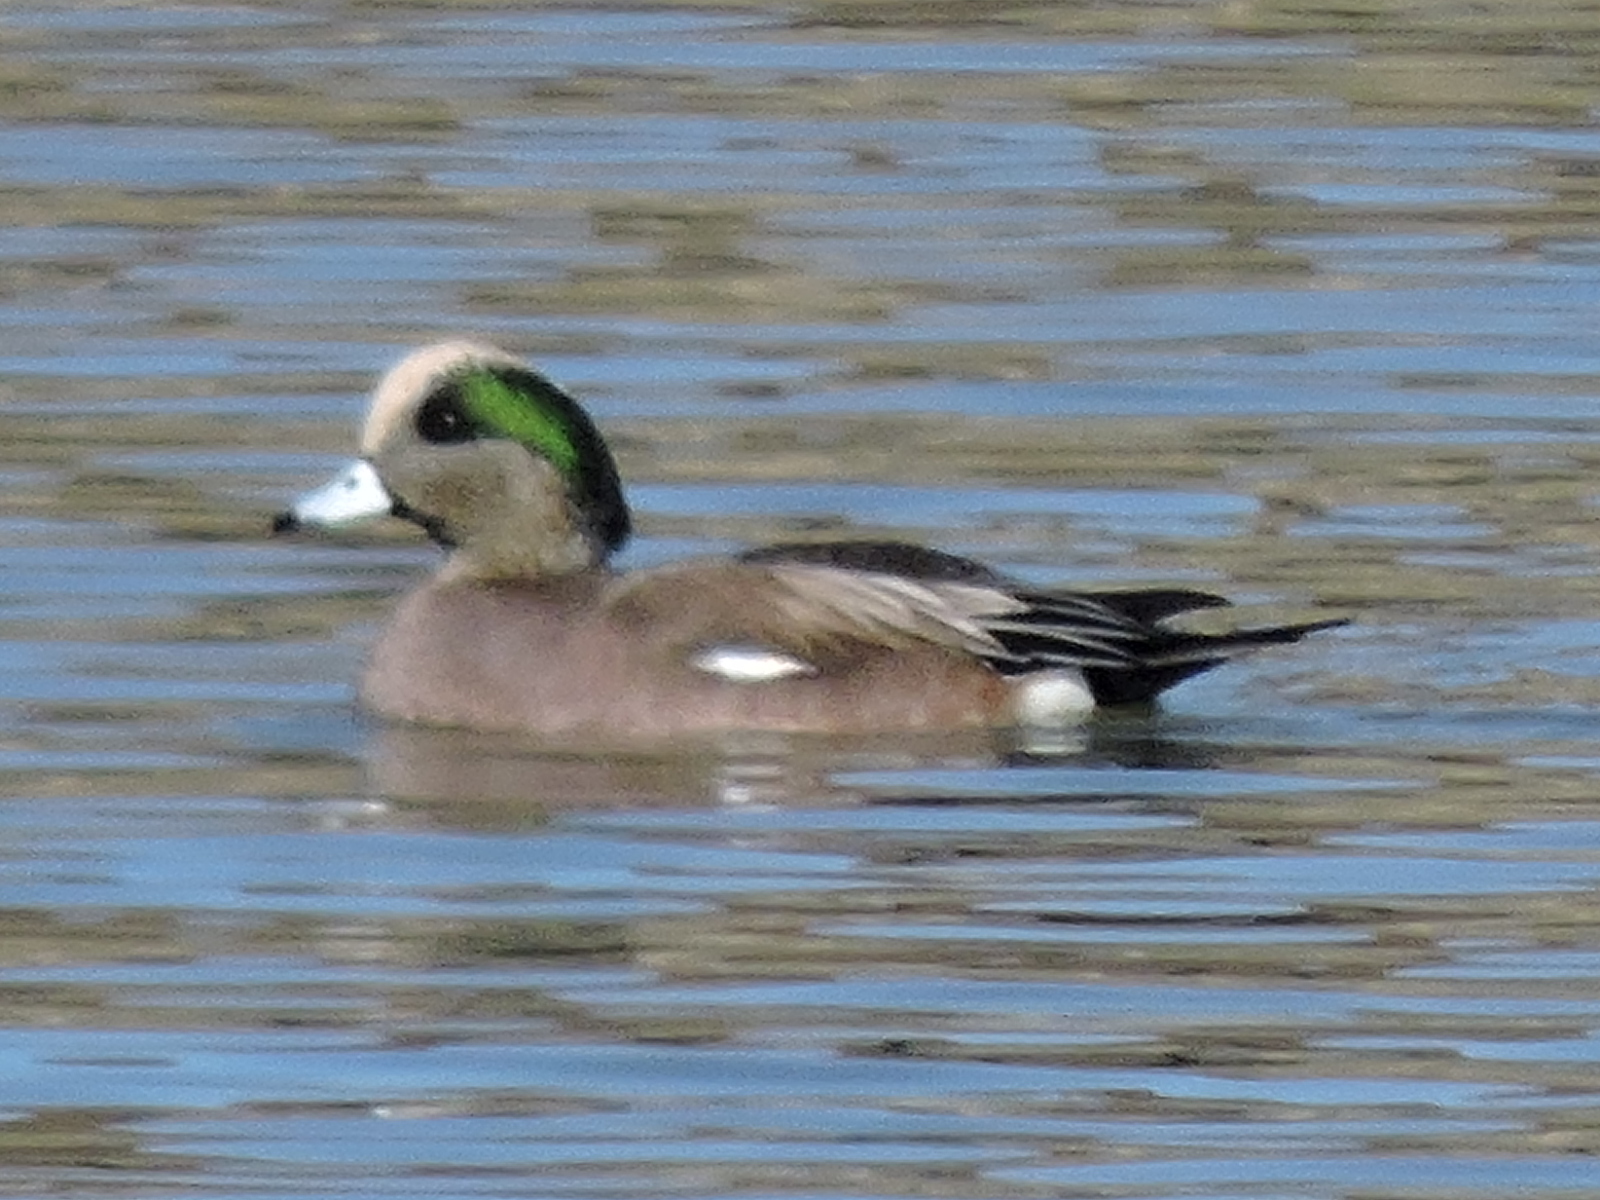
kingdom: Animalia
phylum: Chordata
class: Aves
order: Anseriformes
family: Anatidae
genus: Mareca
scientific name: Mareca americana
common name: American wigeon
